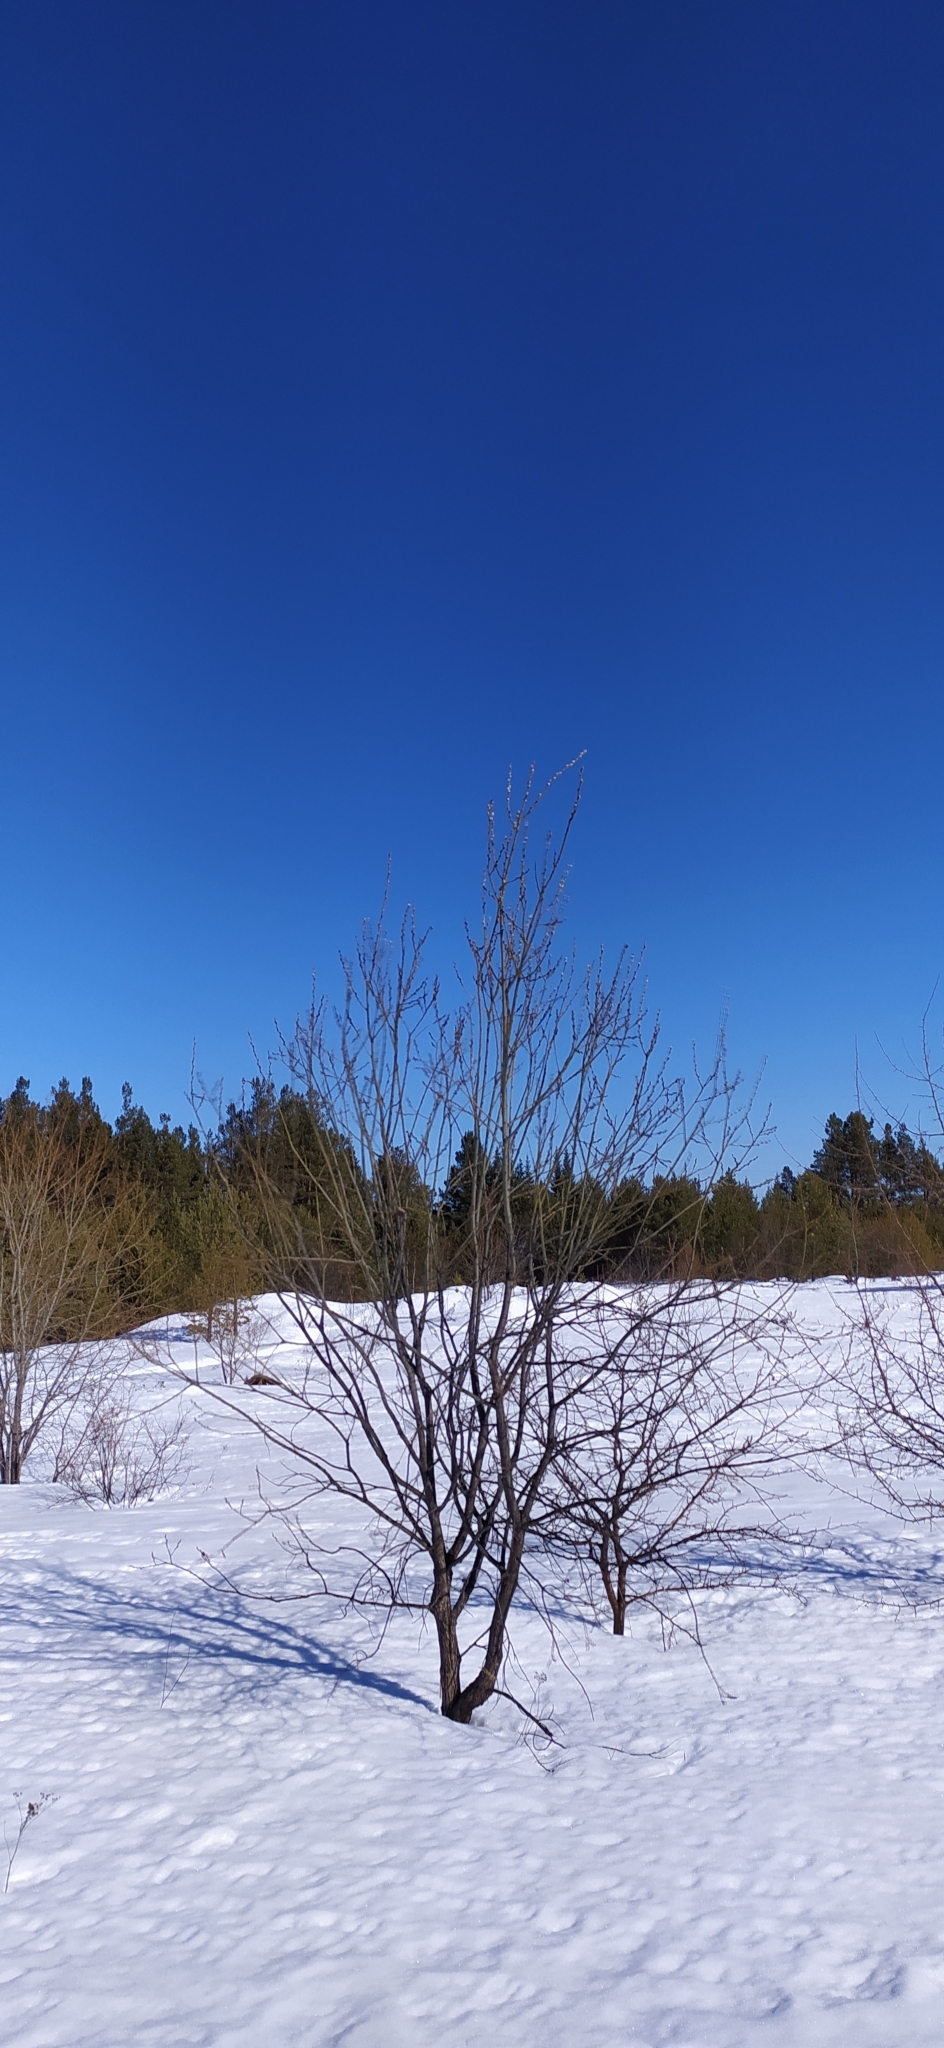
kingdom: Plantae
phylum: Tracheophyta
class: Magnoliopsida
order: Malpighiales
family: Salicaceae
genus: Salix
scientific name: Salix
